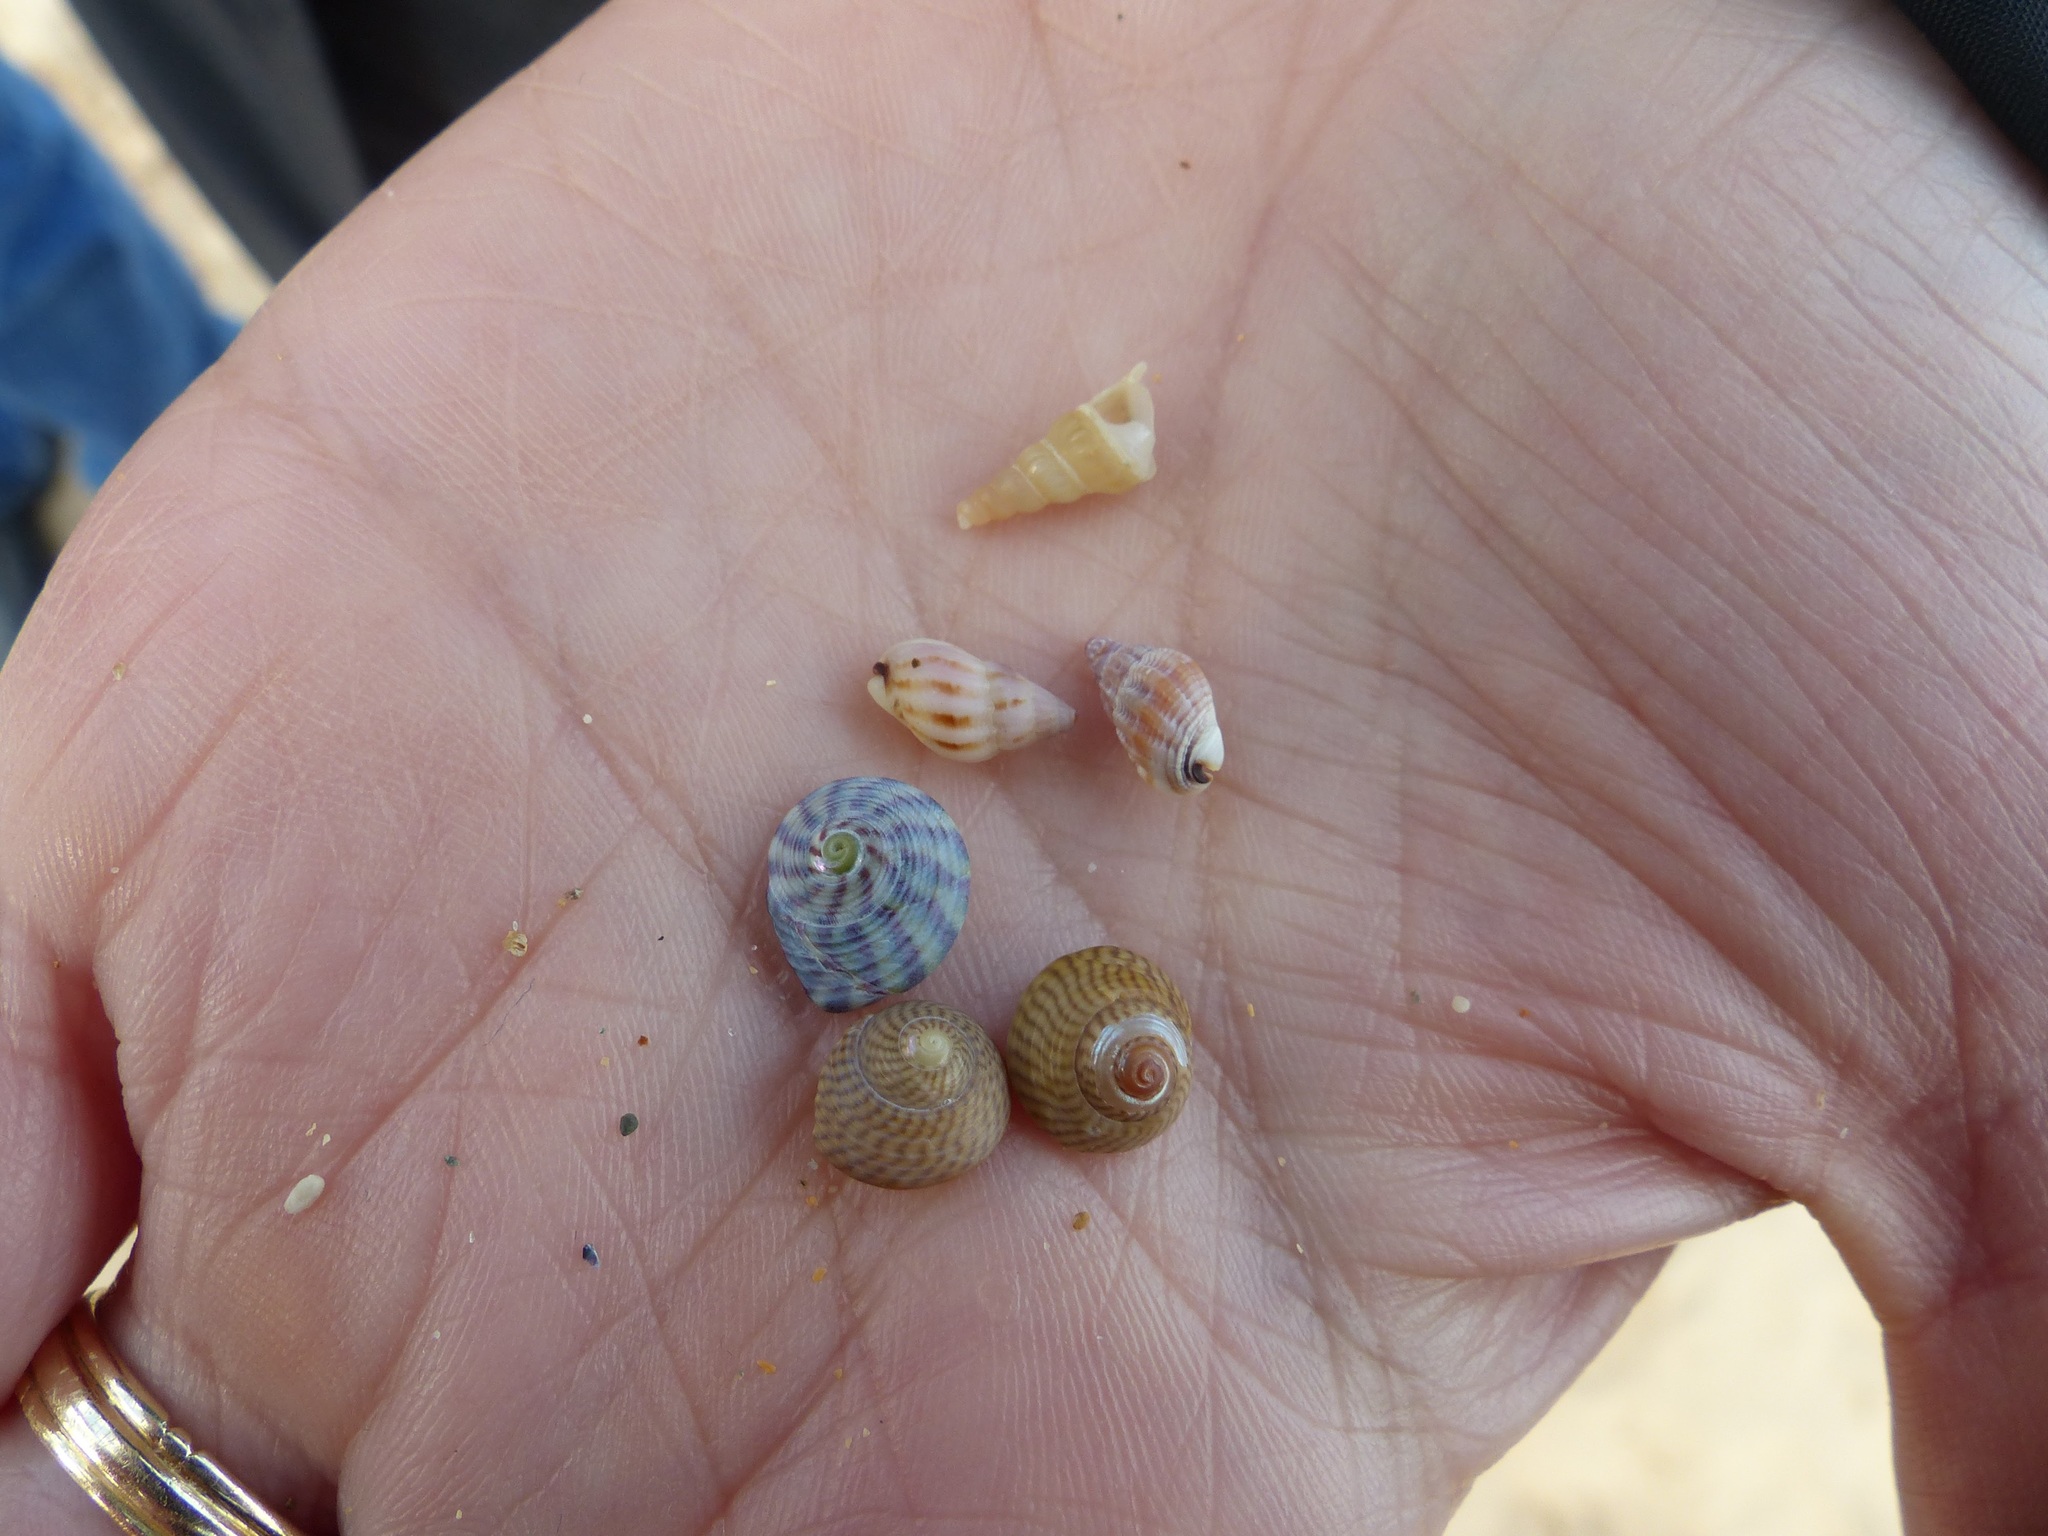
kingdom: Animalia
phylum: Mollusca
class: Gastropoda
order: Trochida
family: Trochidae
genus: Steromphala
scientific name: Steromphala cineraria
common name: Grey top shell
